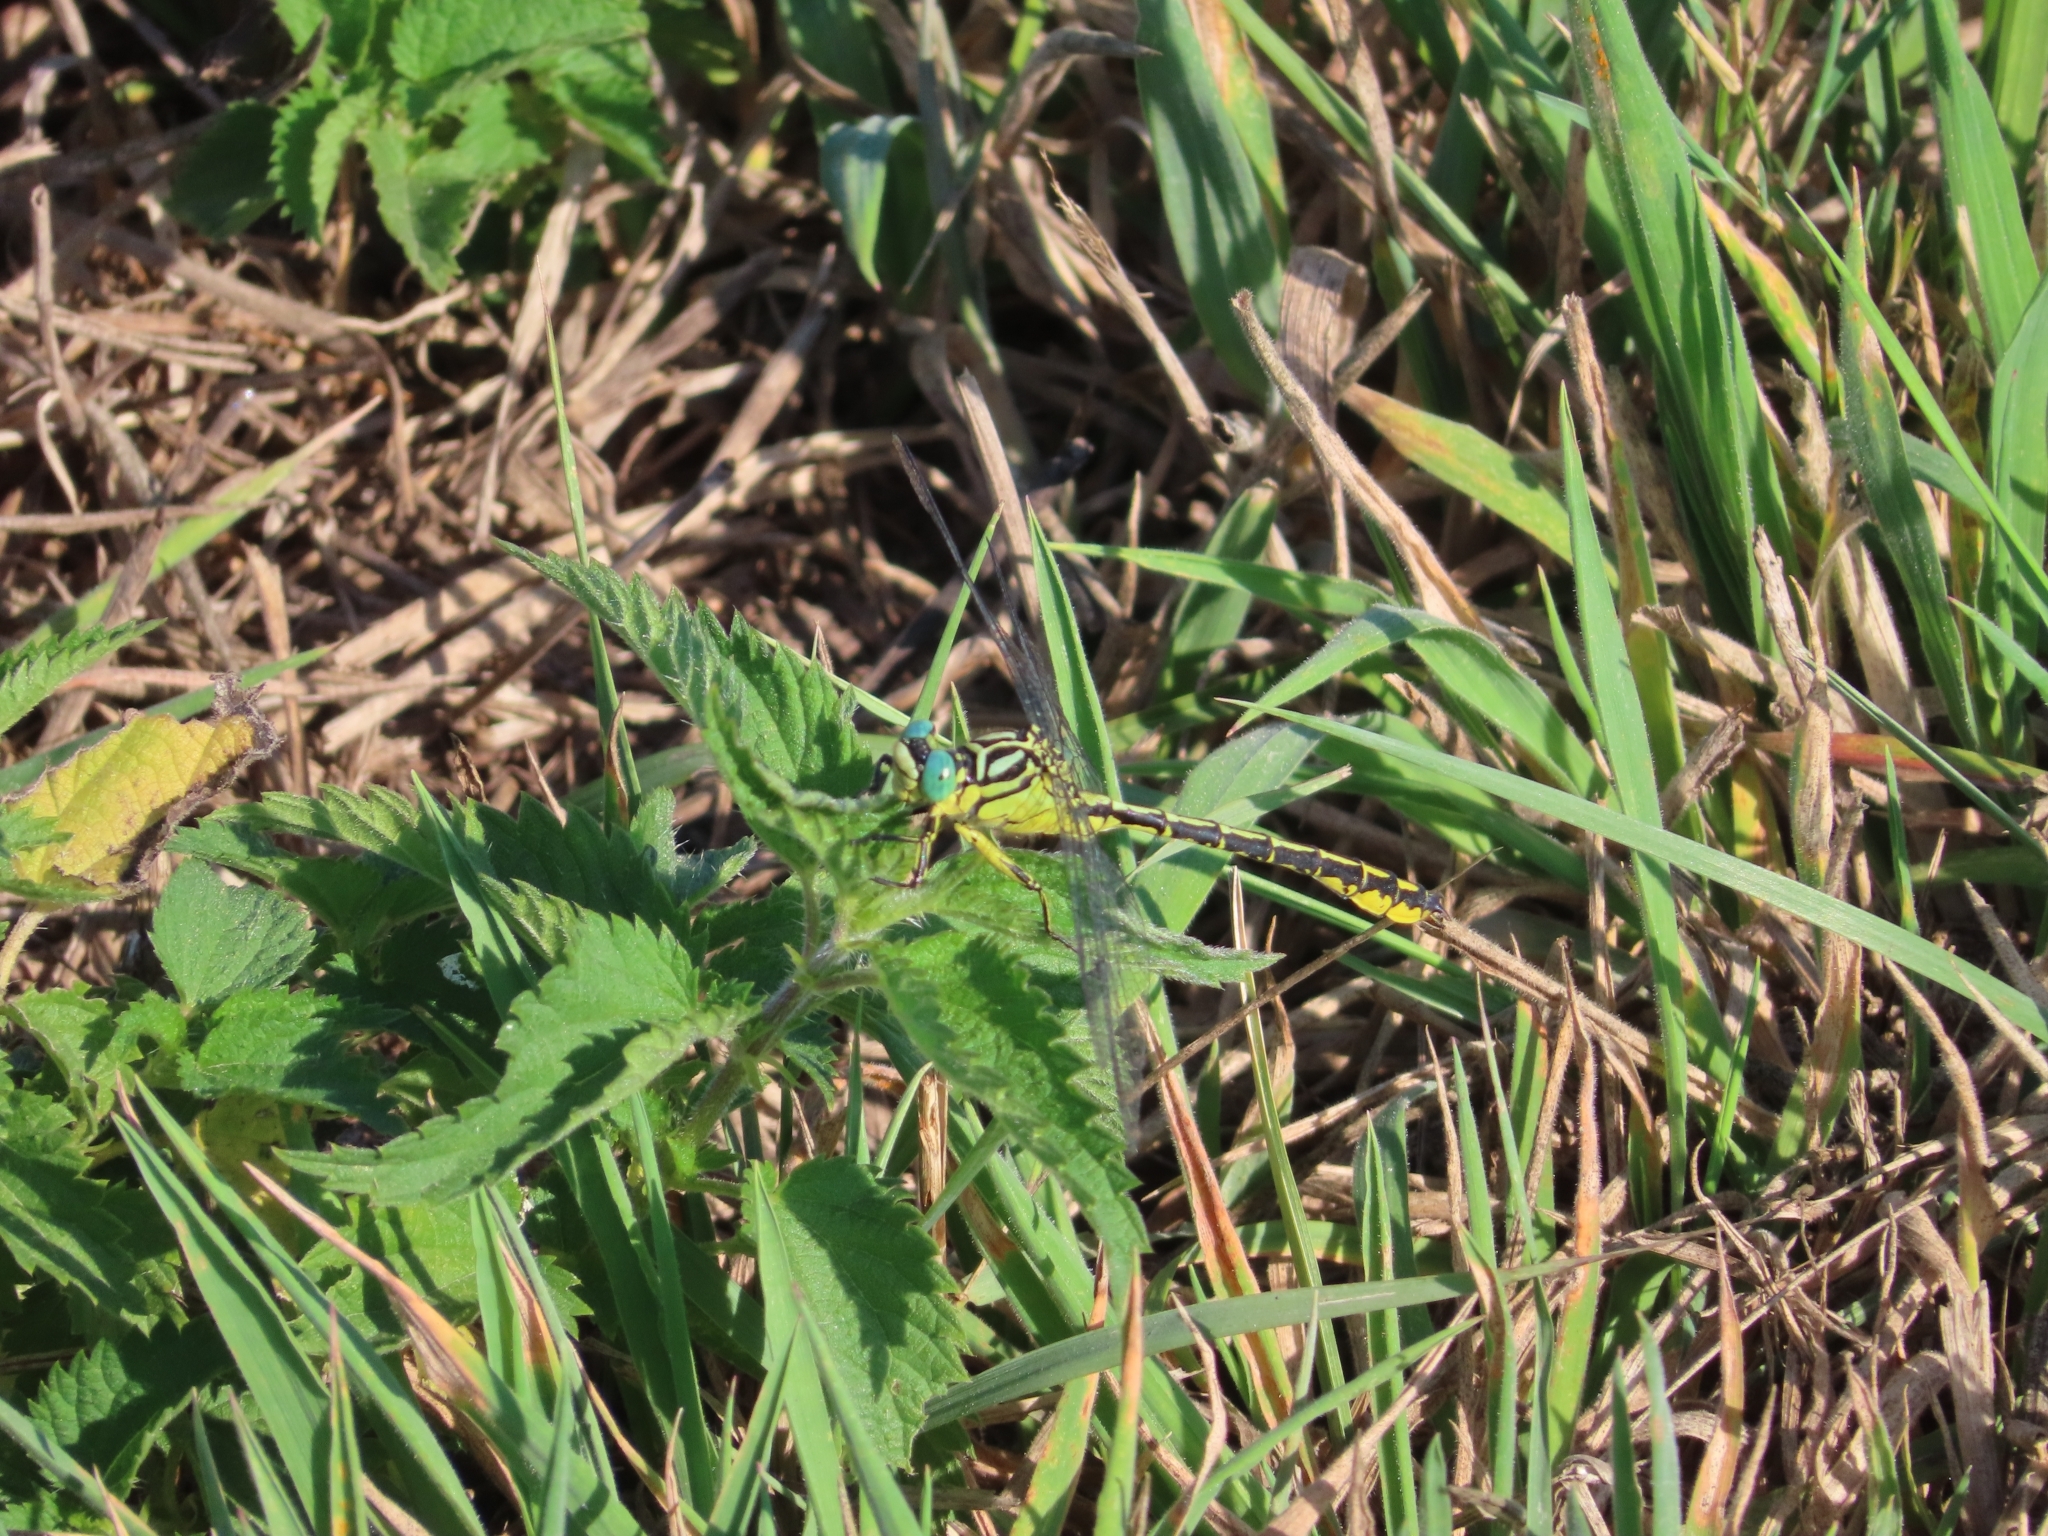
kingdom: Animalia
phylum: Arthropoda
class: Insecta
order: Odonata
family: Gomphidae
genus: Stylurus
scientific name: Stylurus flavipes
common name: River clubtail
